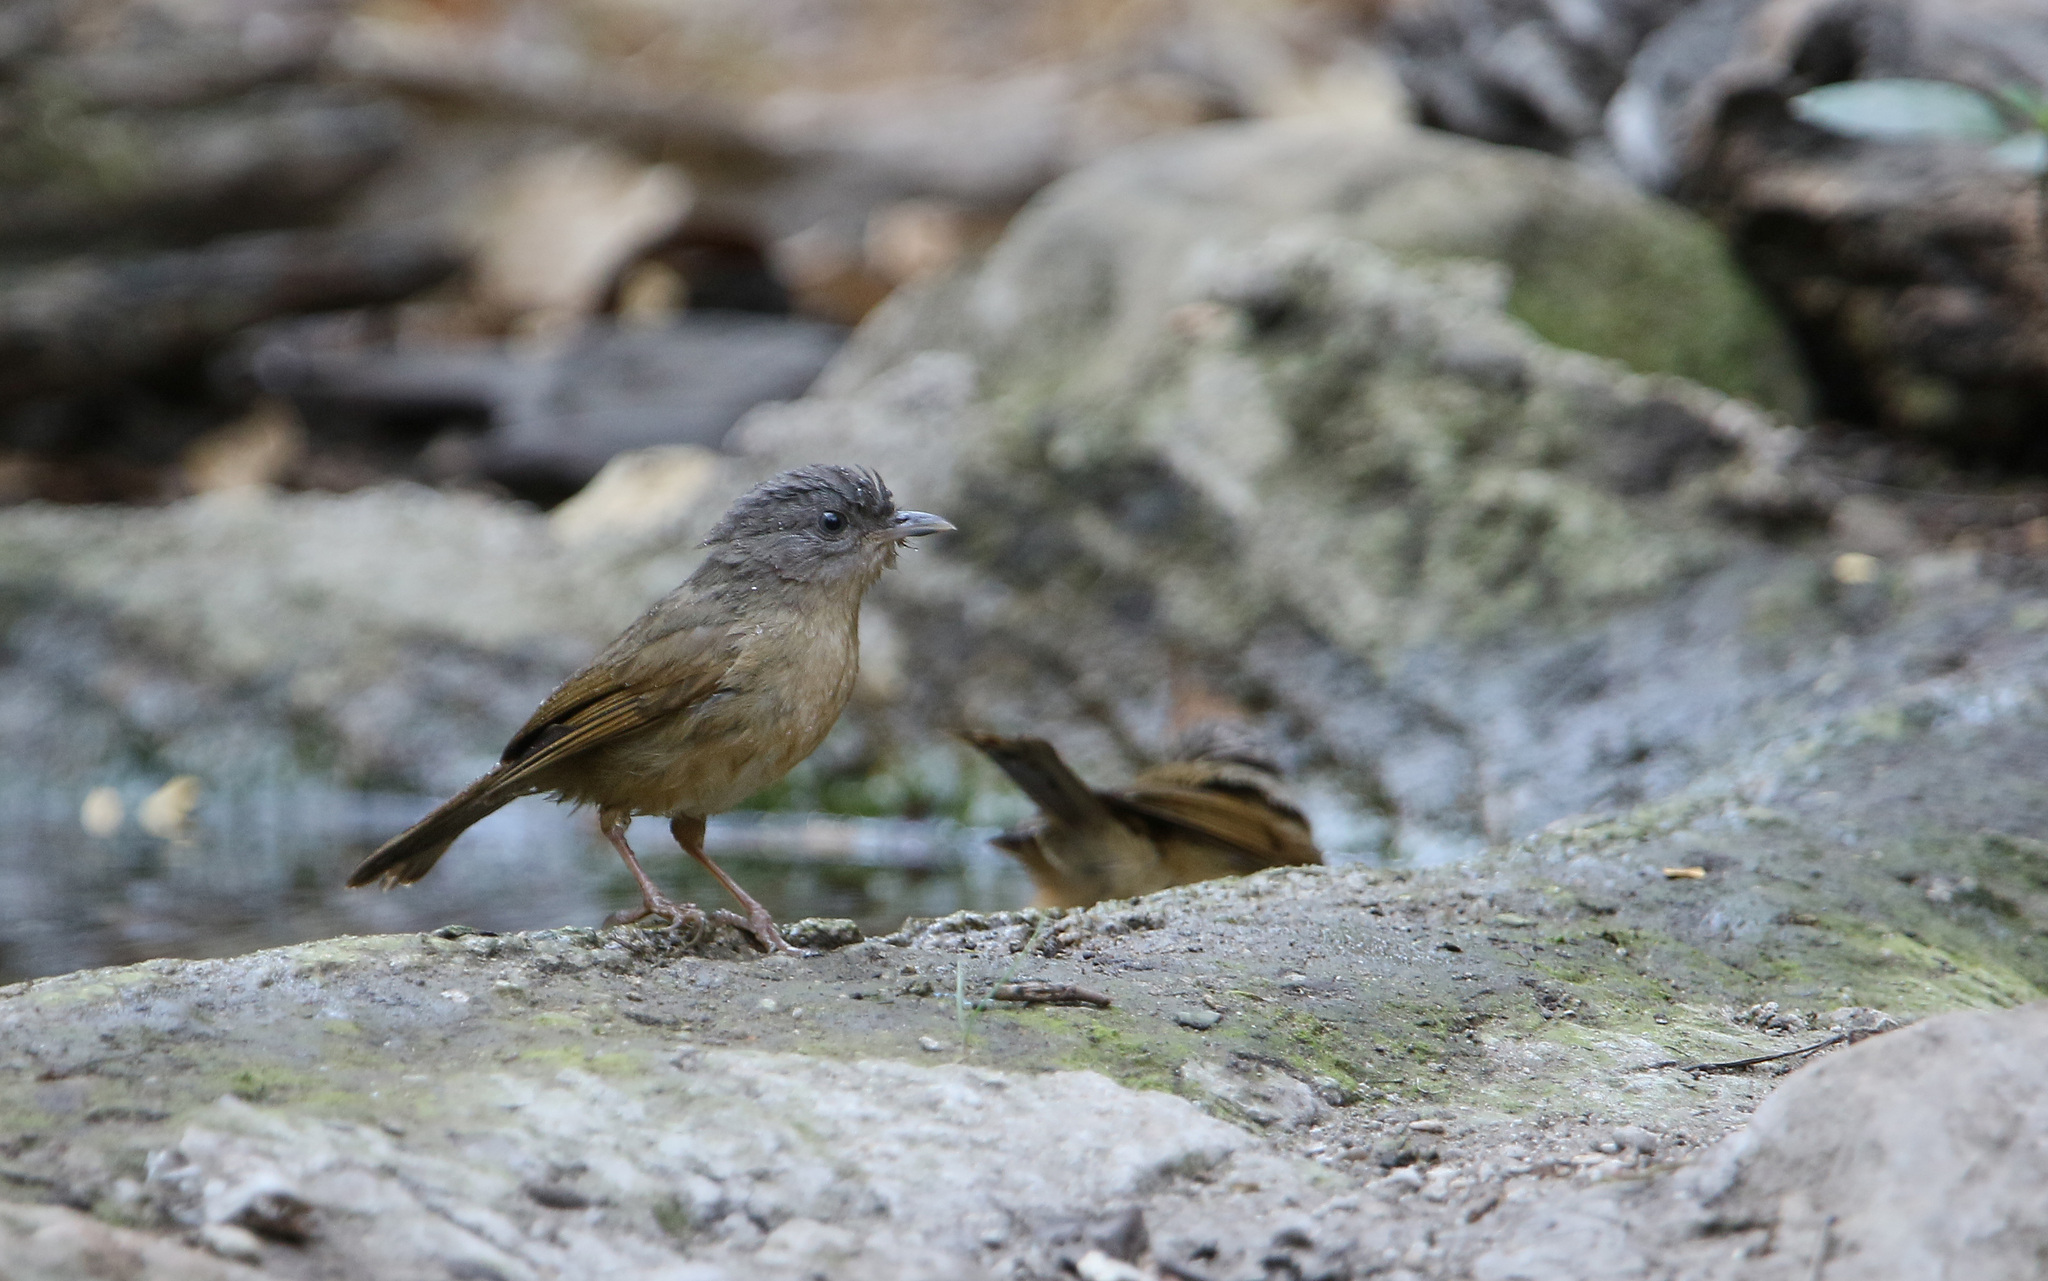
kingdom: Animalia
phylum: Chordata
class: Aves
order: Passeriformes
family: Pellorneidae
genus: Alcippe
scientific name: Alcippe poioicephala
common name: Brown-cheeked fulvetta
